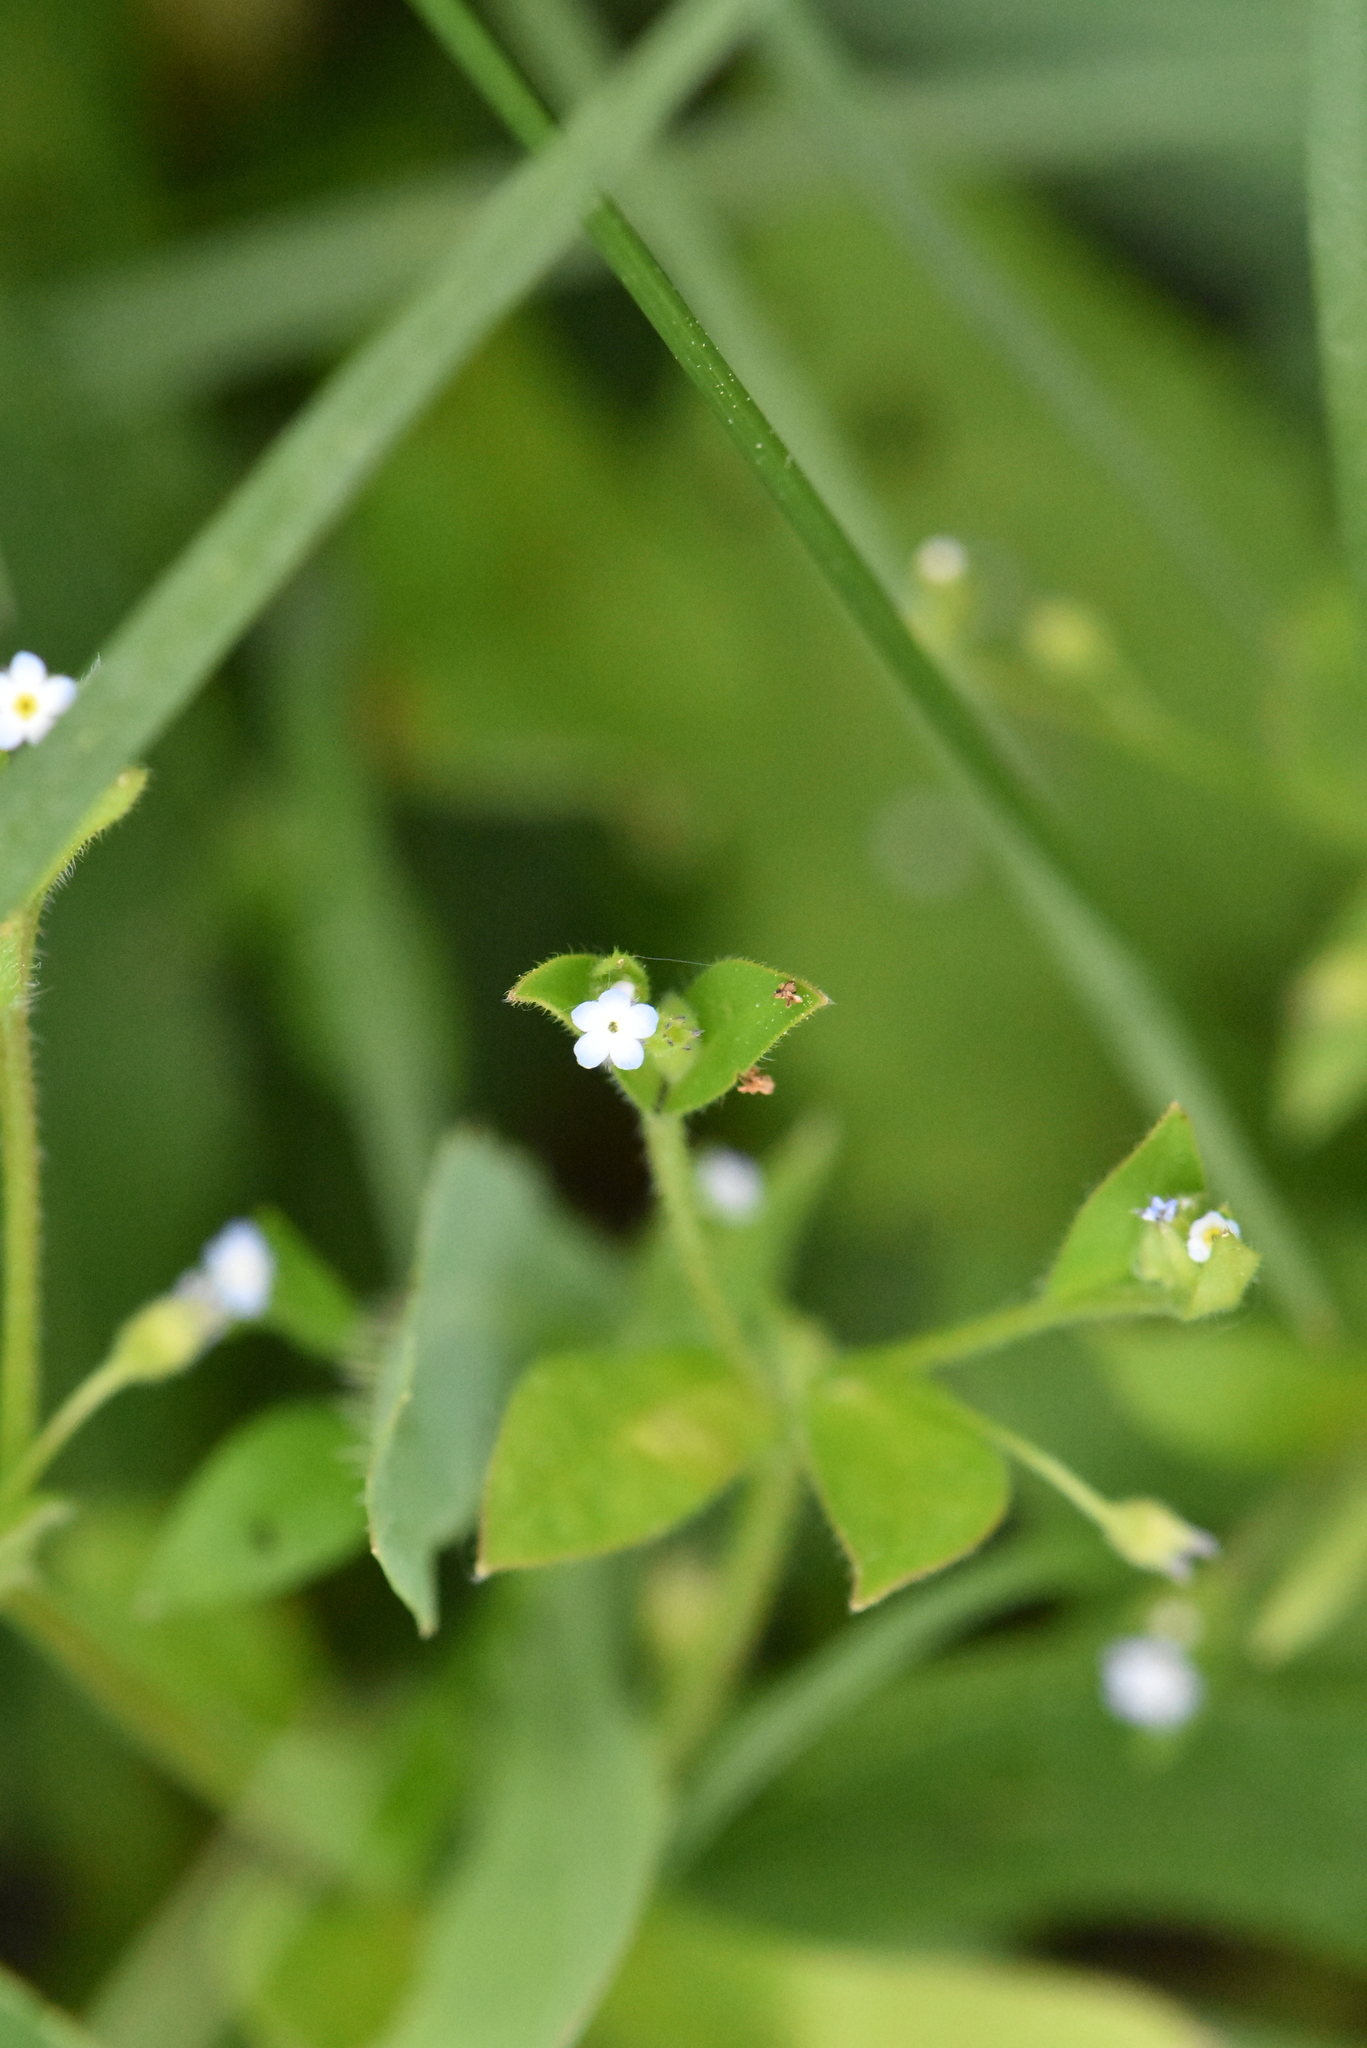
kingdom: Plantae
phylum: Tracheophyta
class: Magnoliopsida
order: Boraginales
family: Boraginaceae
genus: Myosotis
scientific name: Myosotis sparsiflora
